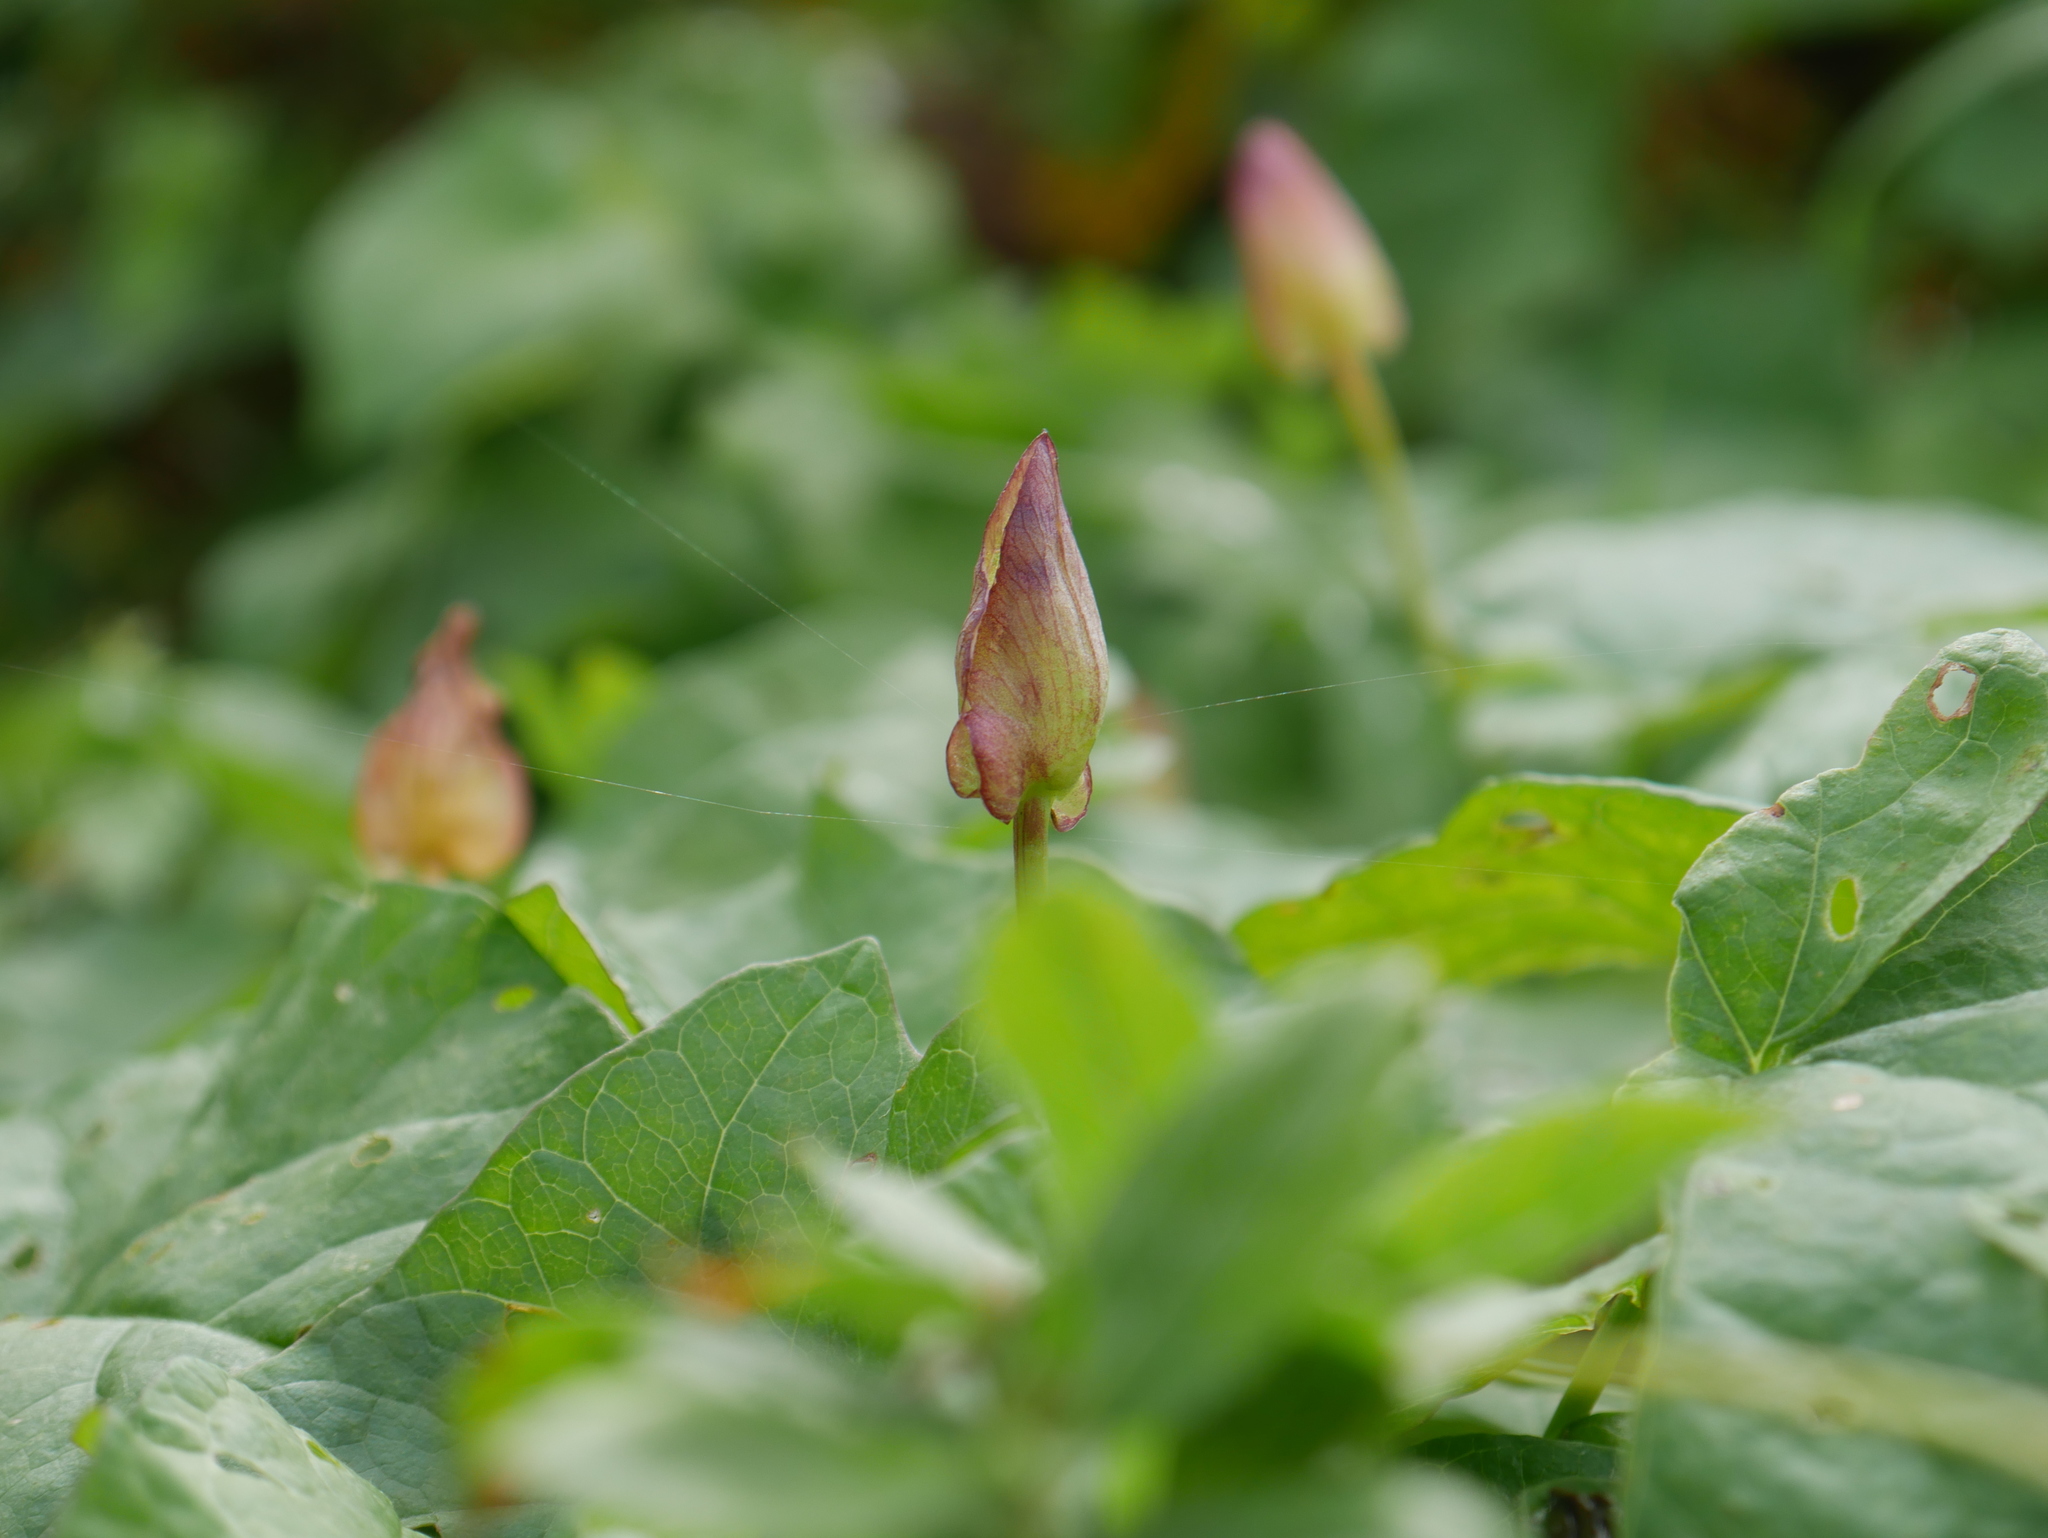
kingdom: Plantae
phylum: Tracheophyta
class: Magnoliopsida
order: Solanales
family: Convolvulaceae
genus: Calystegia
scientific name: Calystegia sepium
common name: Hedge bindweed
